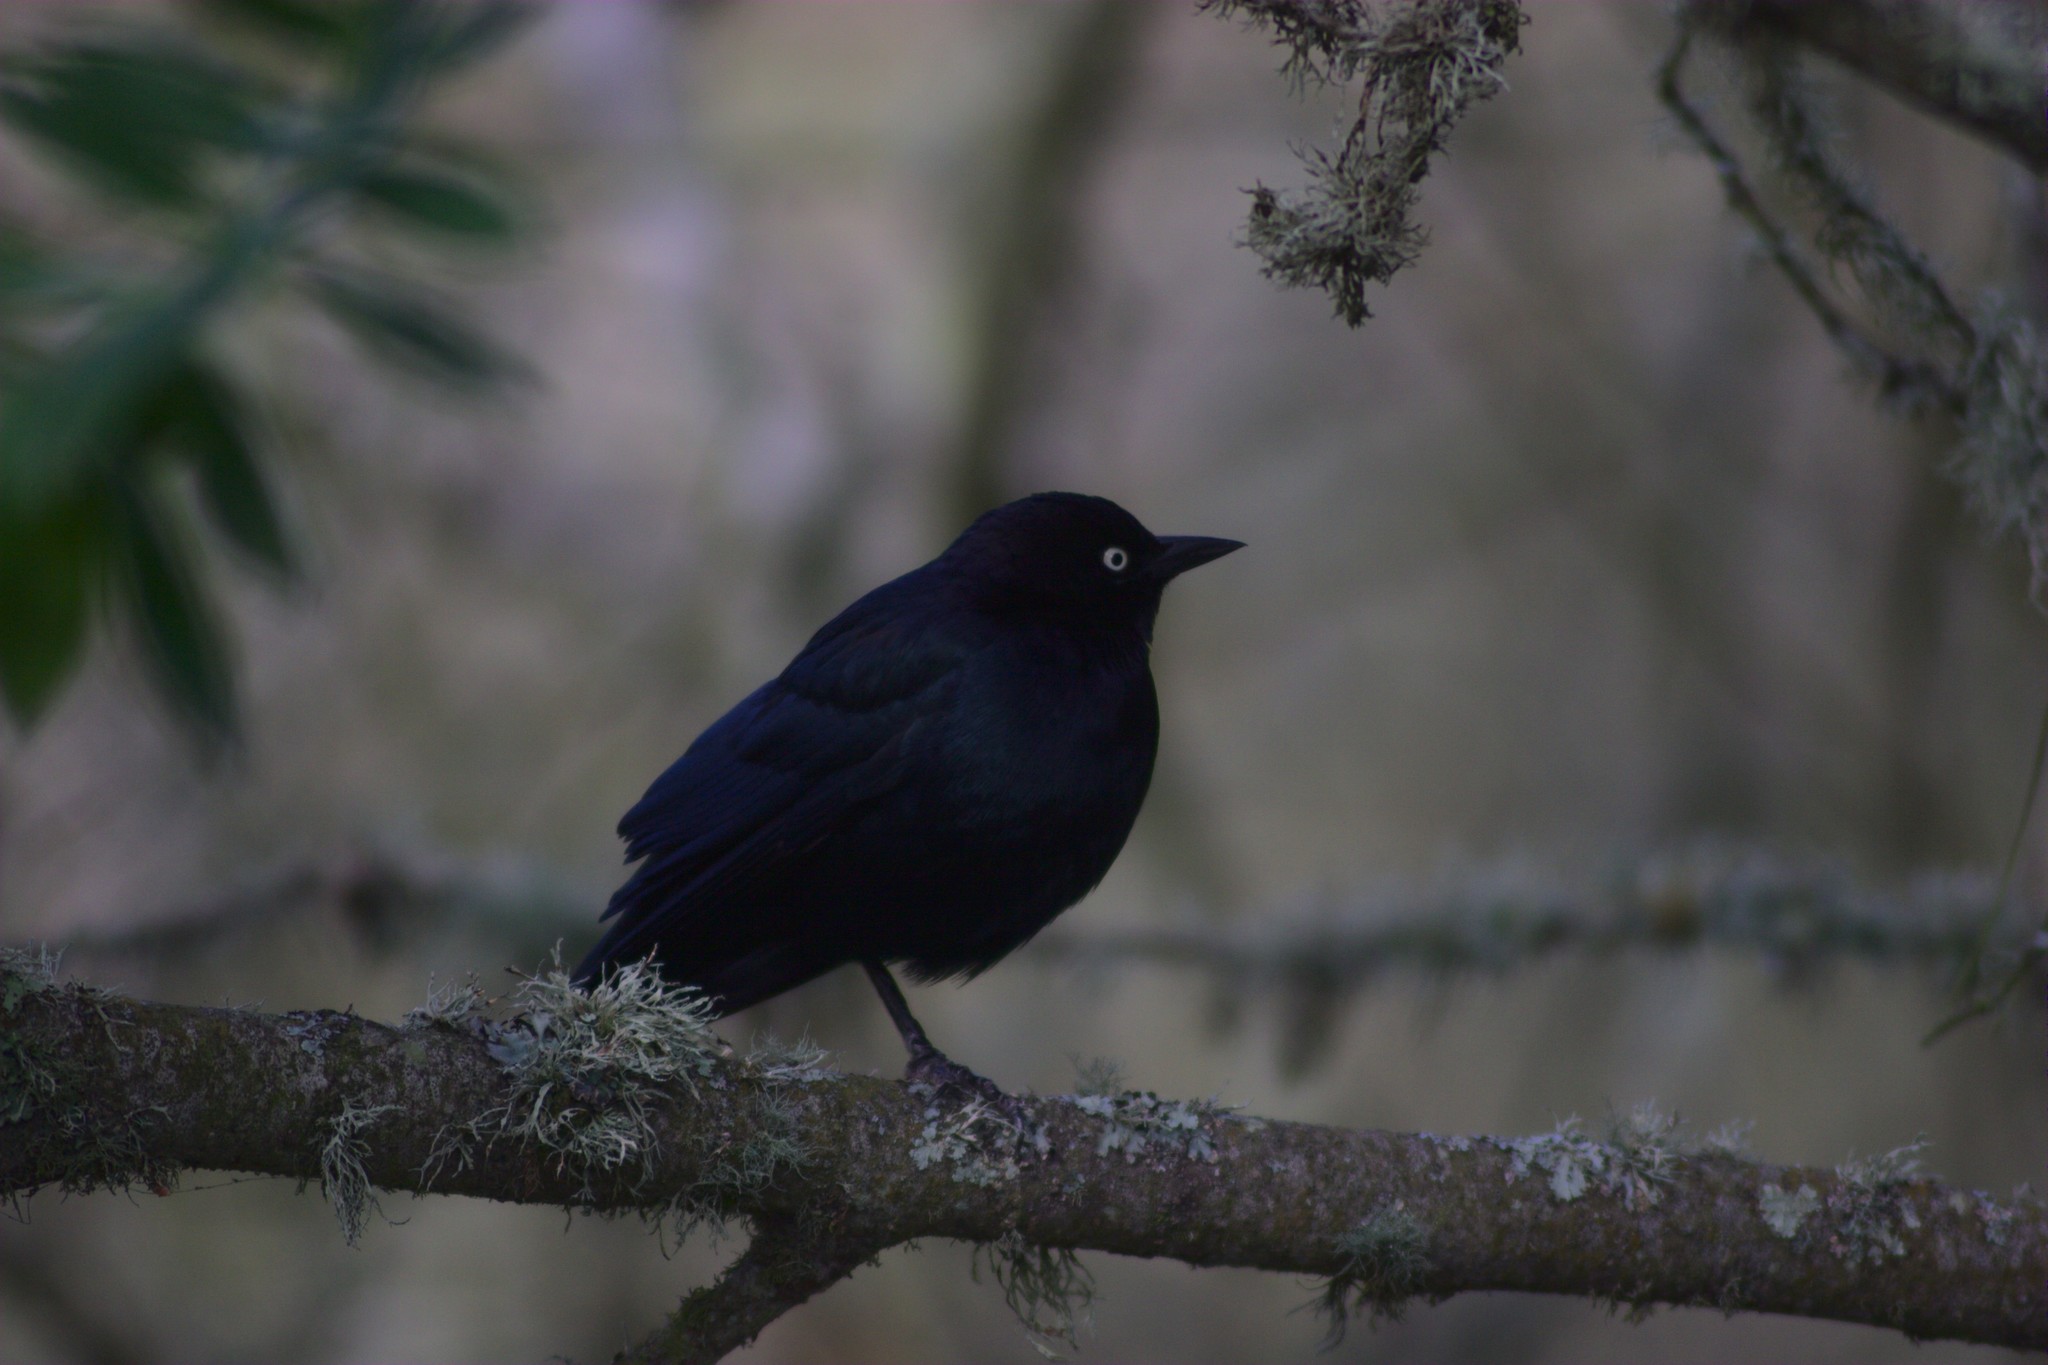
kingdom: Animalia
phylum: Chordata
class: Aves
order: Passeriformes
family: Icteridae
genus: Euphagus
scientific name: Euphagus cyanocephalus
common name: Brewer's blackbird
